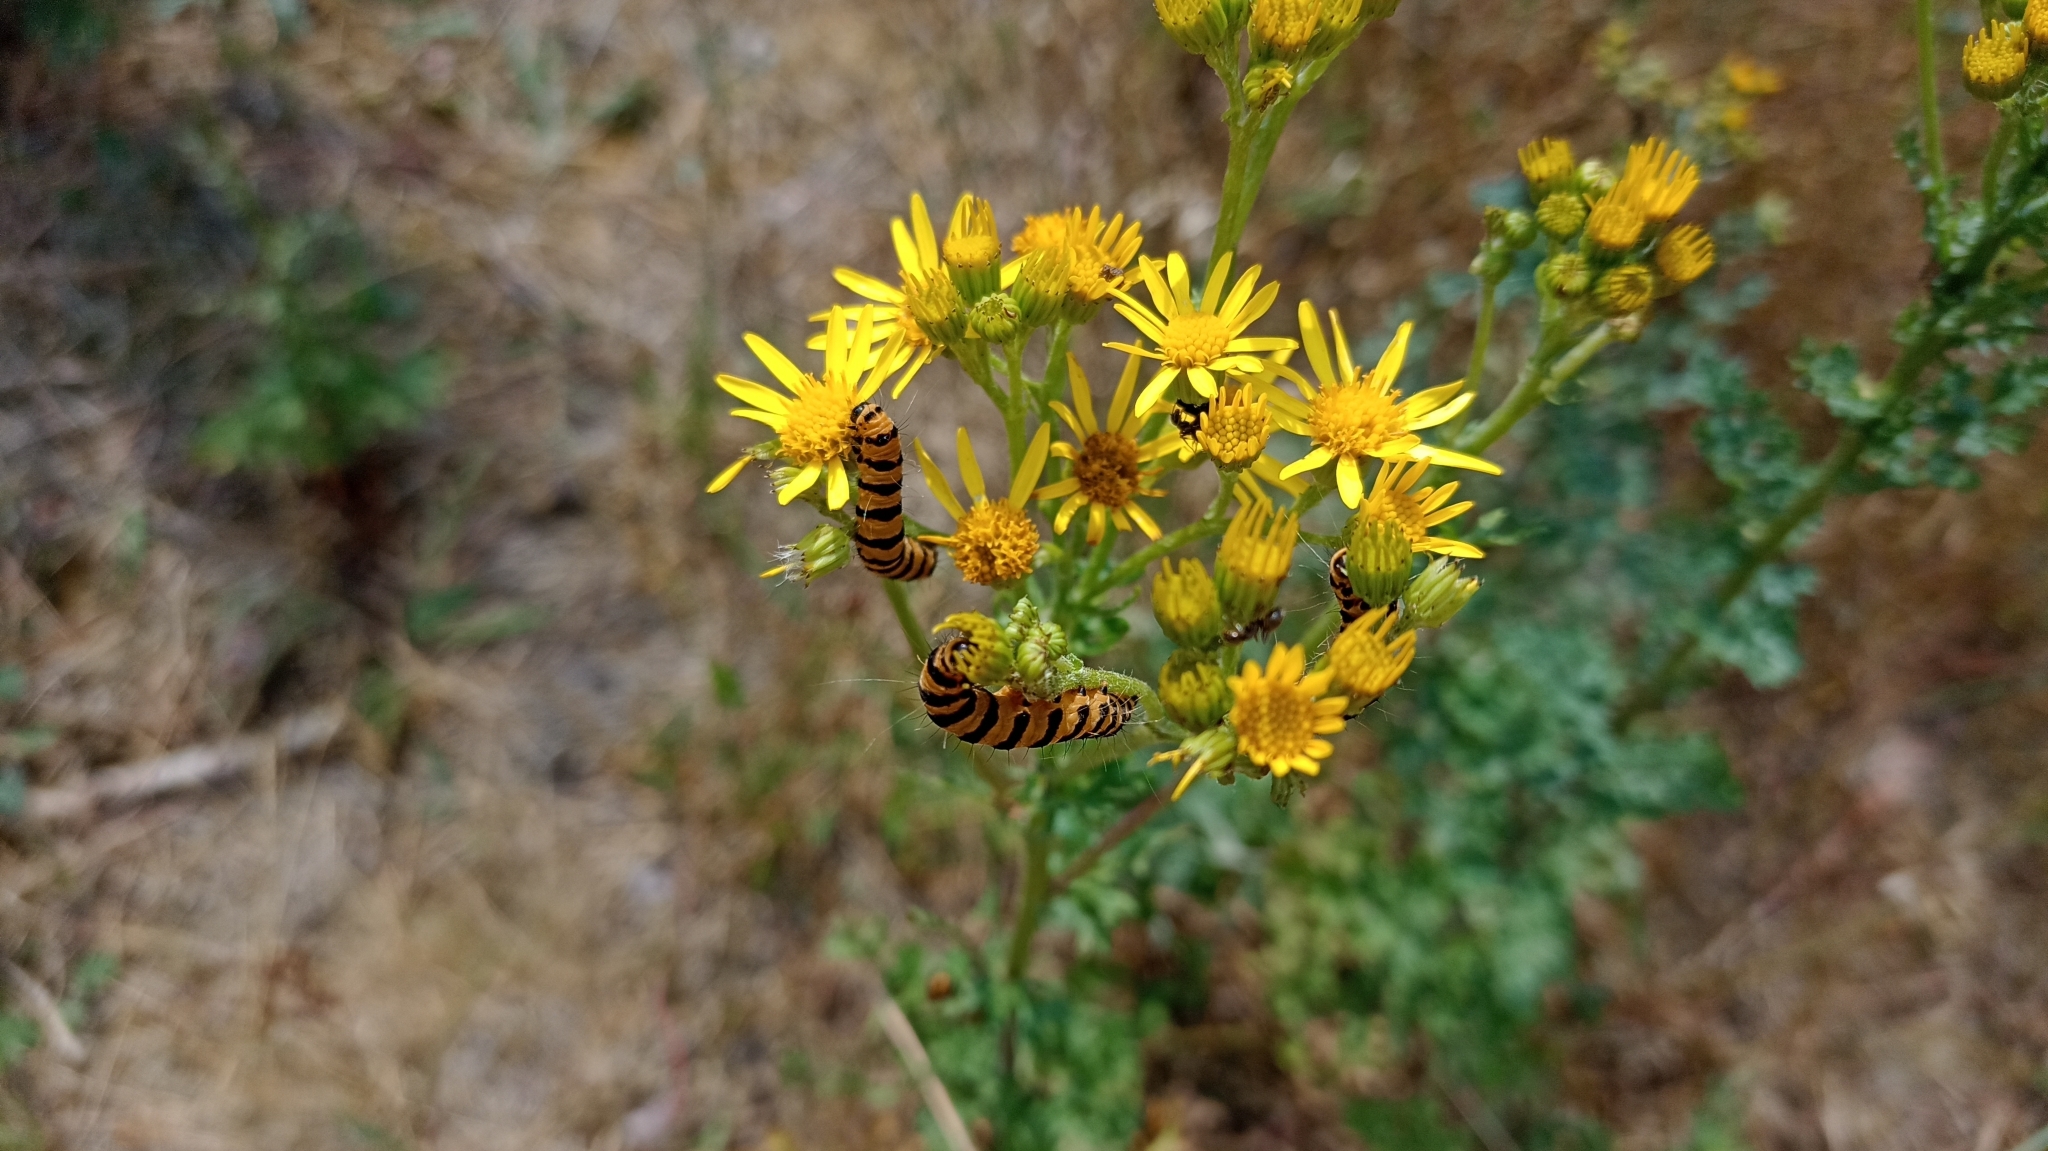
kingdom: Animalia
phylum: Arthropoda
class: Insecta
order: Lepidoptera
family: Erebidae
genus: Tyria
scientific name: Tyria jacobaeae
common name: Cinnabar
